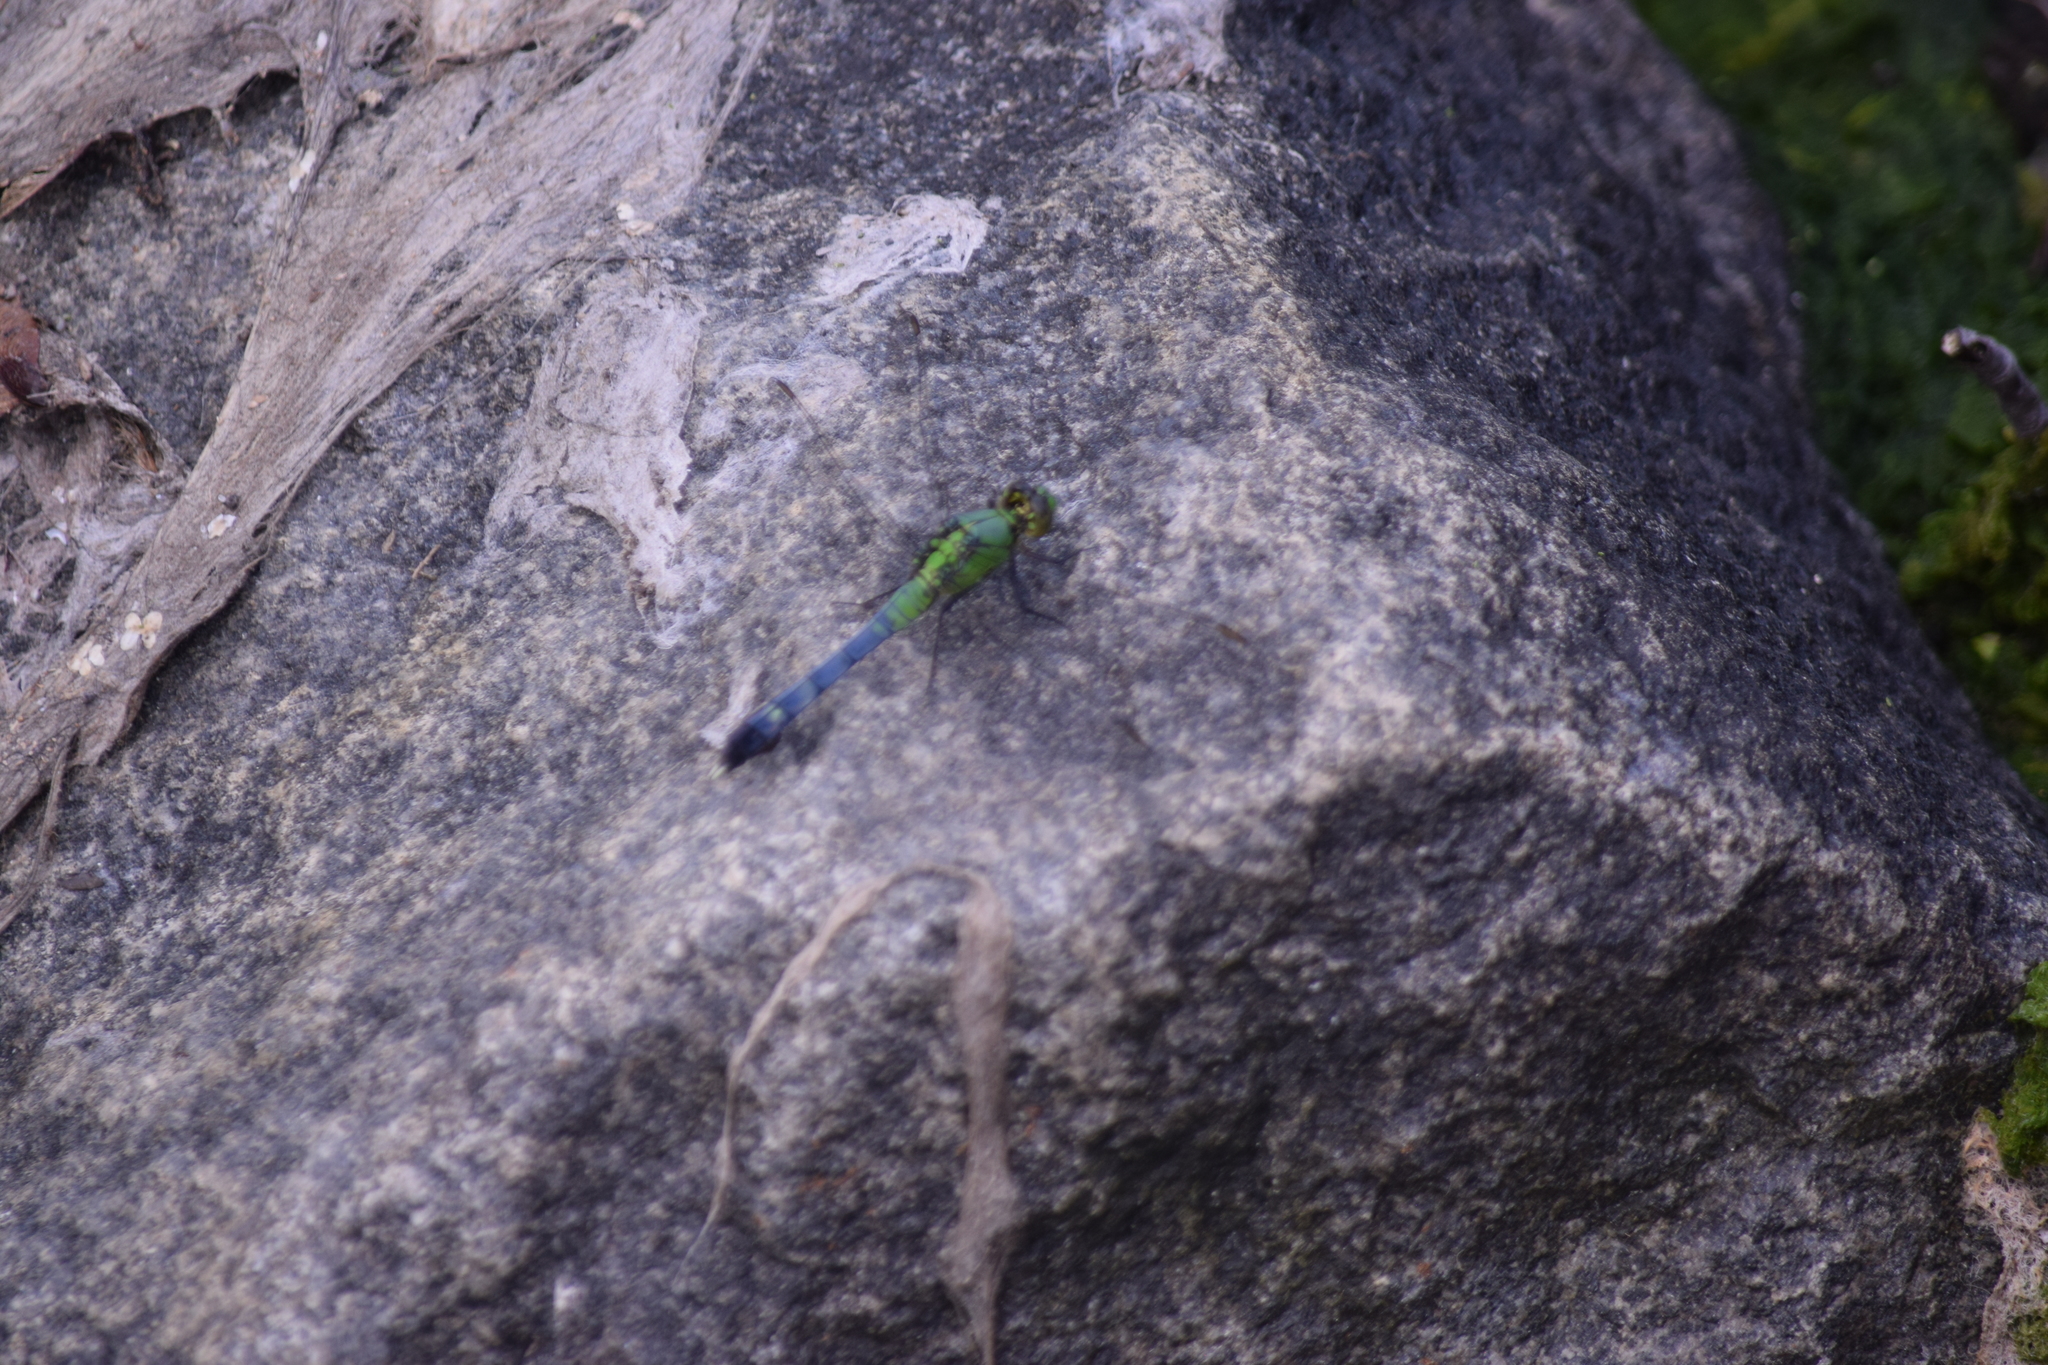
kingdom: Animalia
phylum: Arthropoda
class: Insecta
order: Odonata
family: Libellulidae
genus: Erythemis
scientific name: Erythemis simplicicollis
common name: Eastern pondhawk
